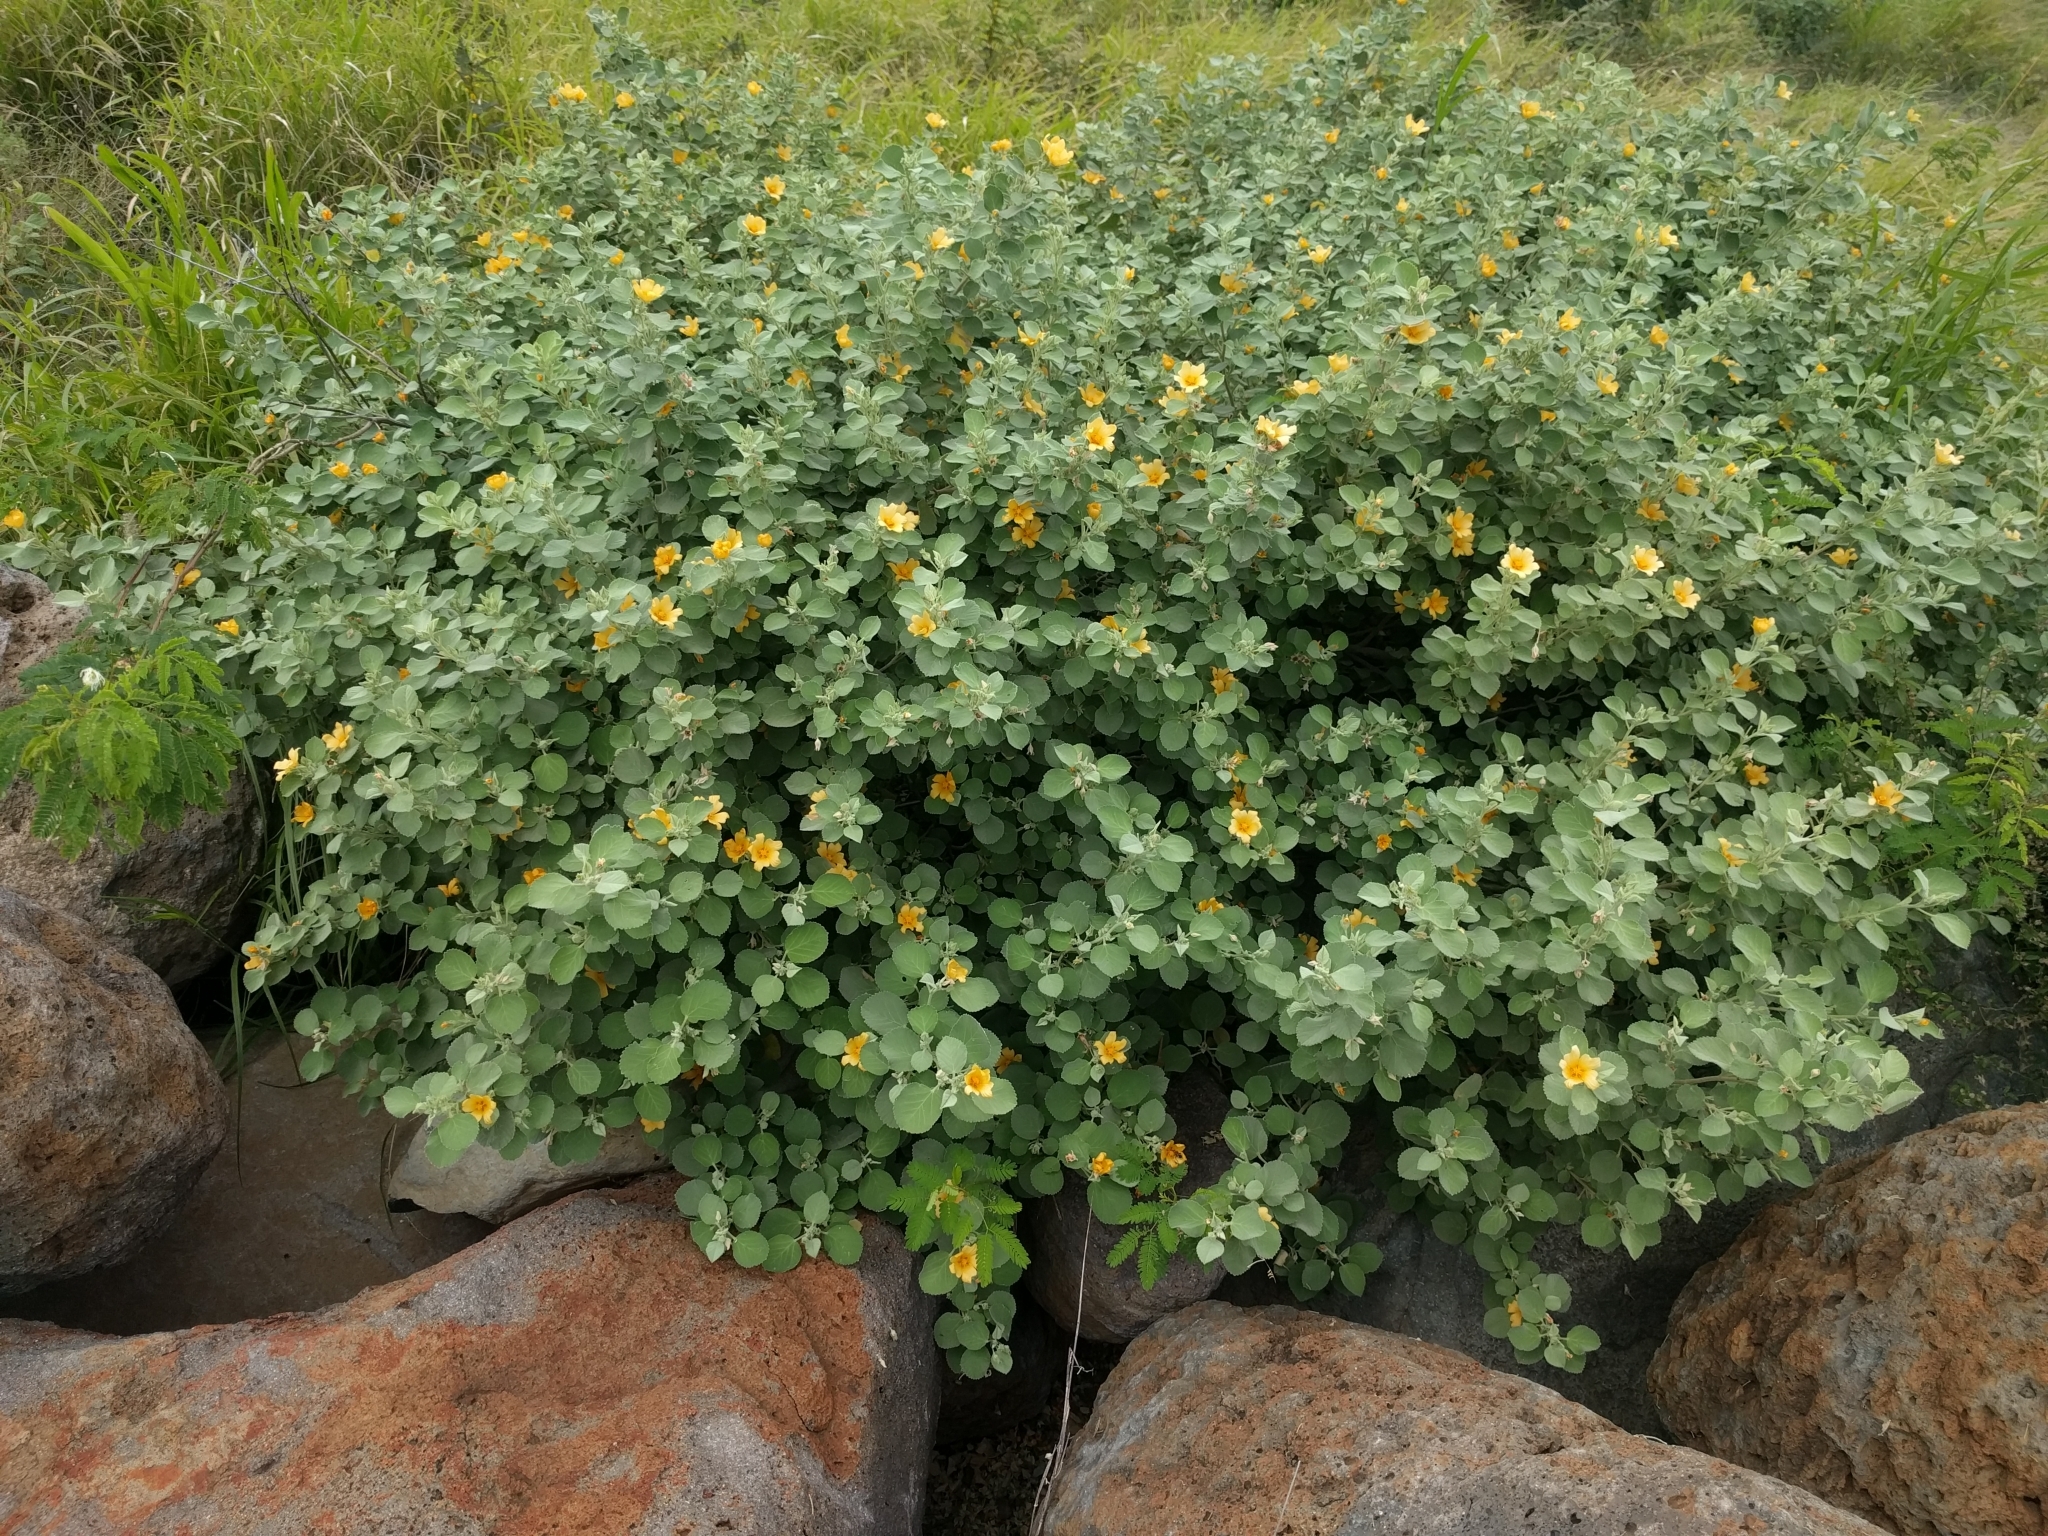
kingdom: Plantae
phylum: Tracheophyta
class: Magnoliopsida
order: Malvales
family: Malvaceae
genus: Sida
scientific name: Sida fallax
